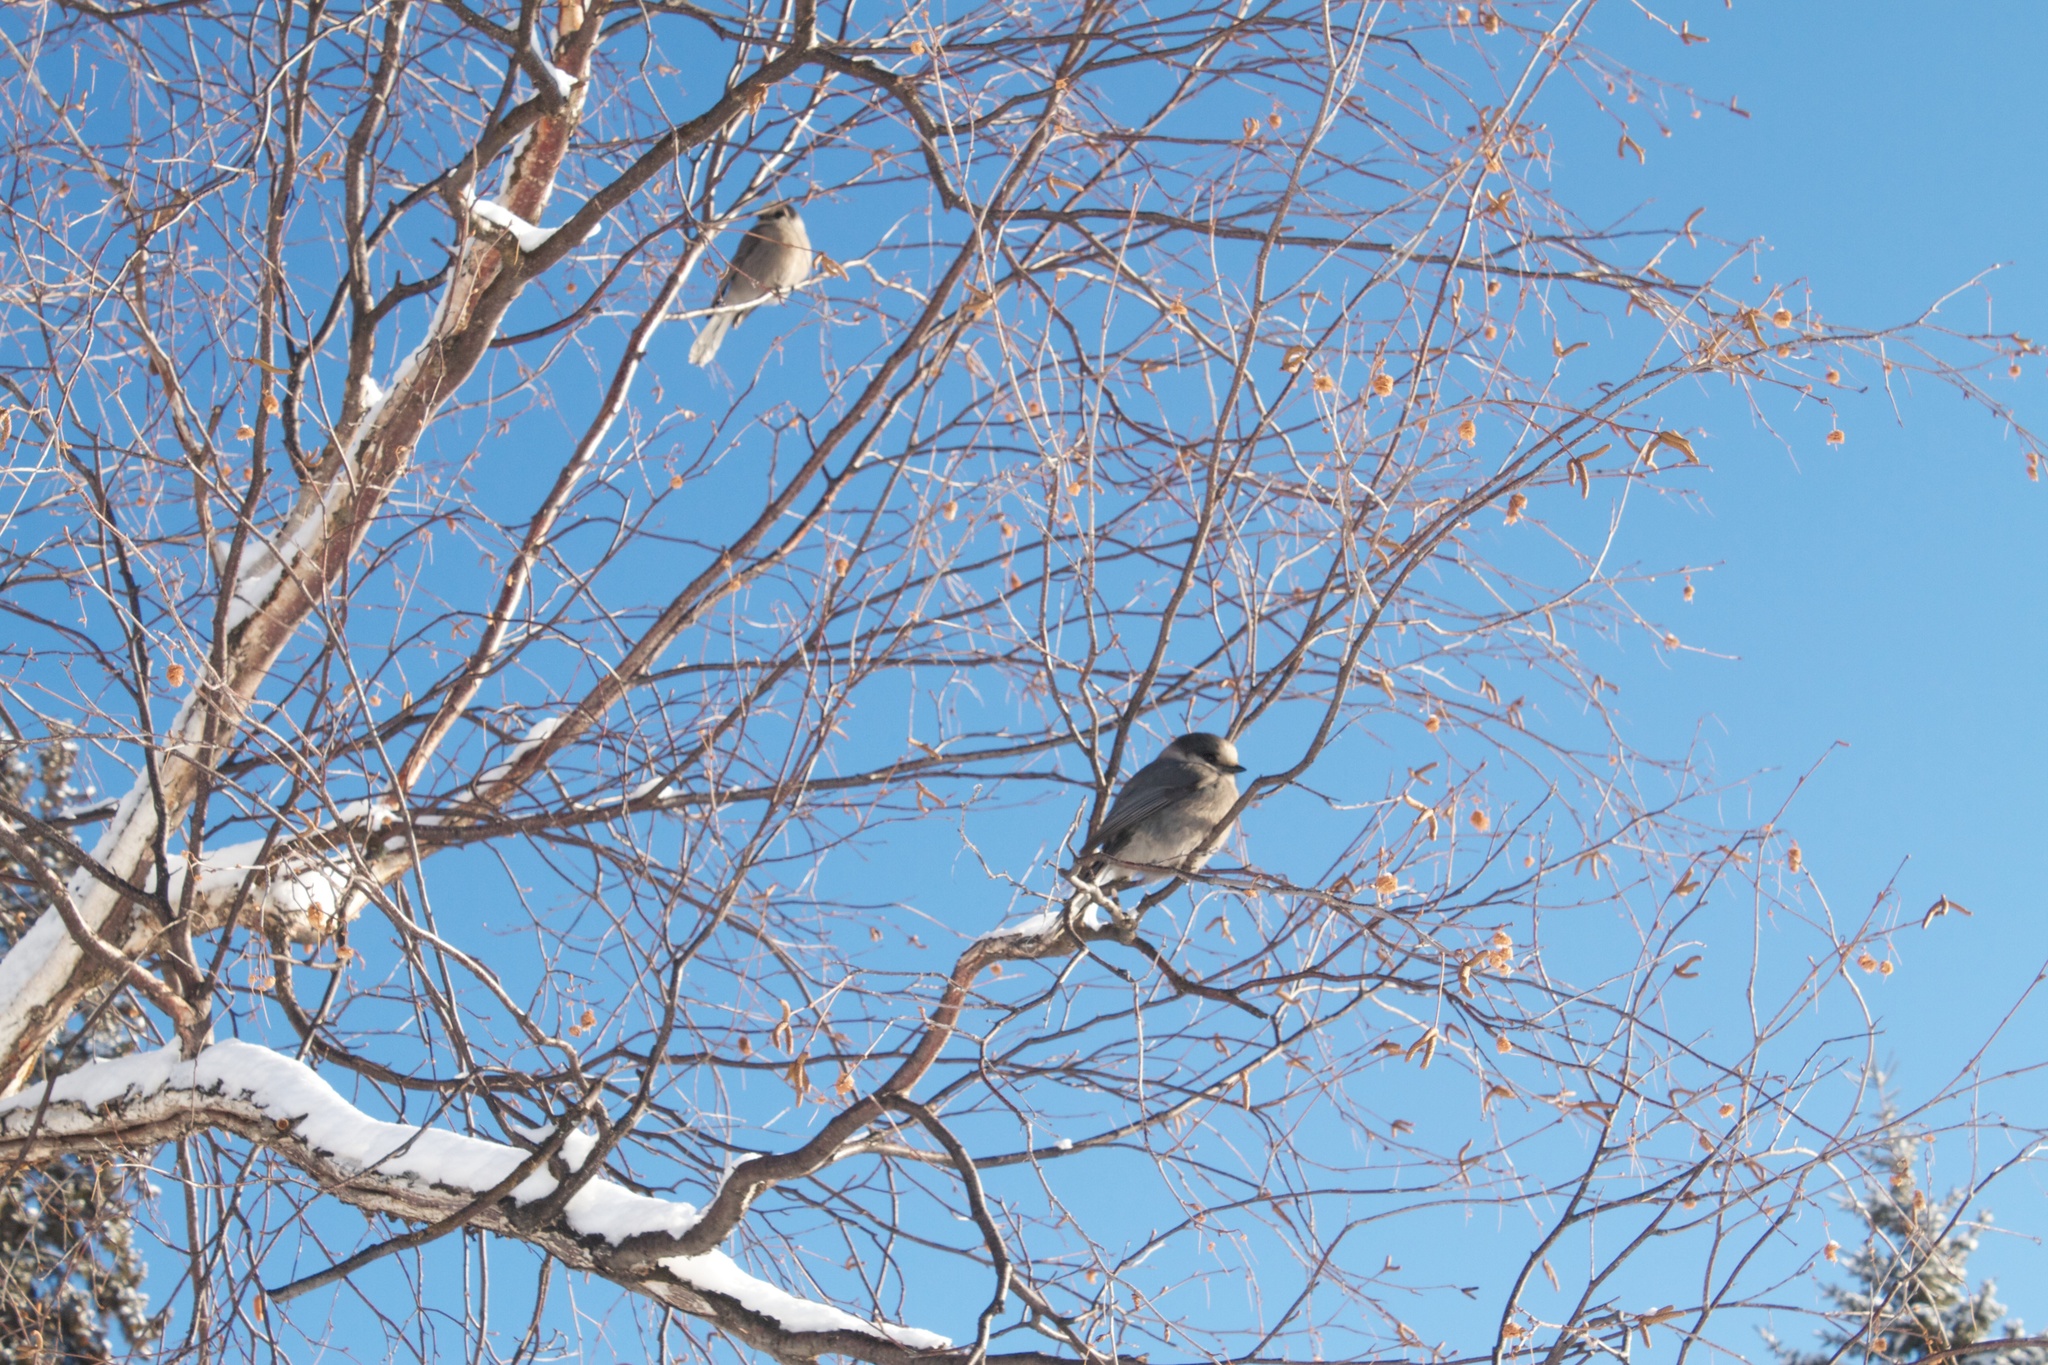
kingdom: Animalia
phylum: Chordata
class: Aves
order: Passeriformes
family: Corvidae
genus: Perisoreus
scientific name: Perisoreus canadensis
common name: Gray jay
